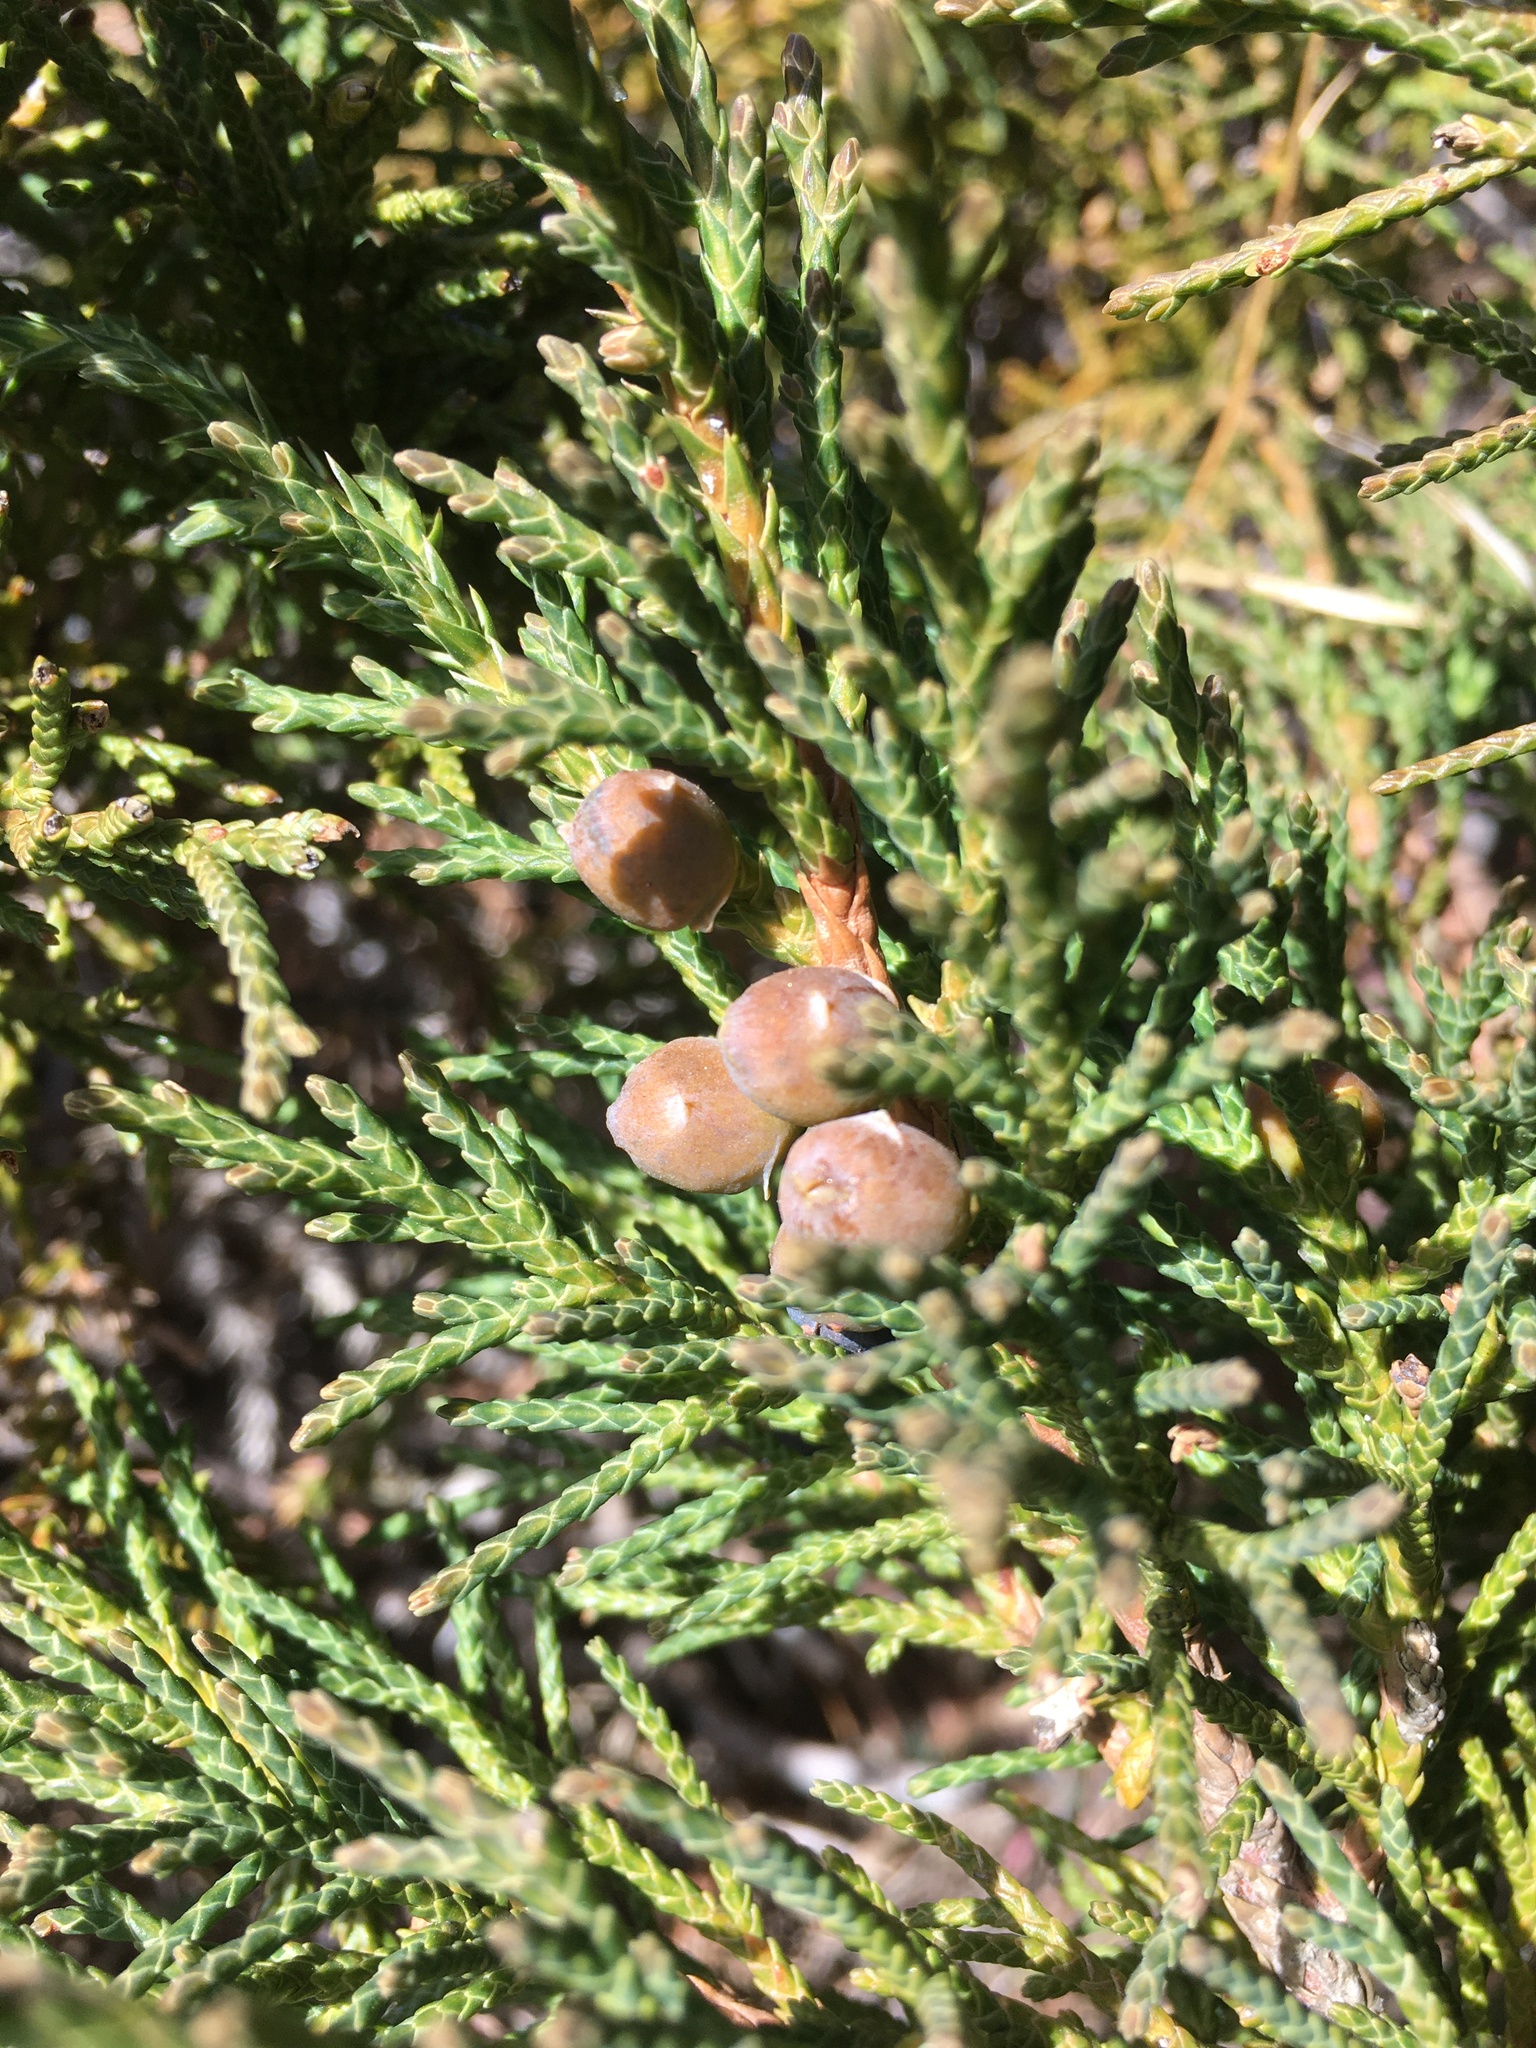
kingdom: Plantae
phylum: Tracheophyta
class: Pinopsida
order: Pinales
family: Cupressaceae
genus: Juniperus
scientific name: Juniperus indica
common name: Black juniper
